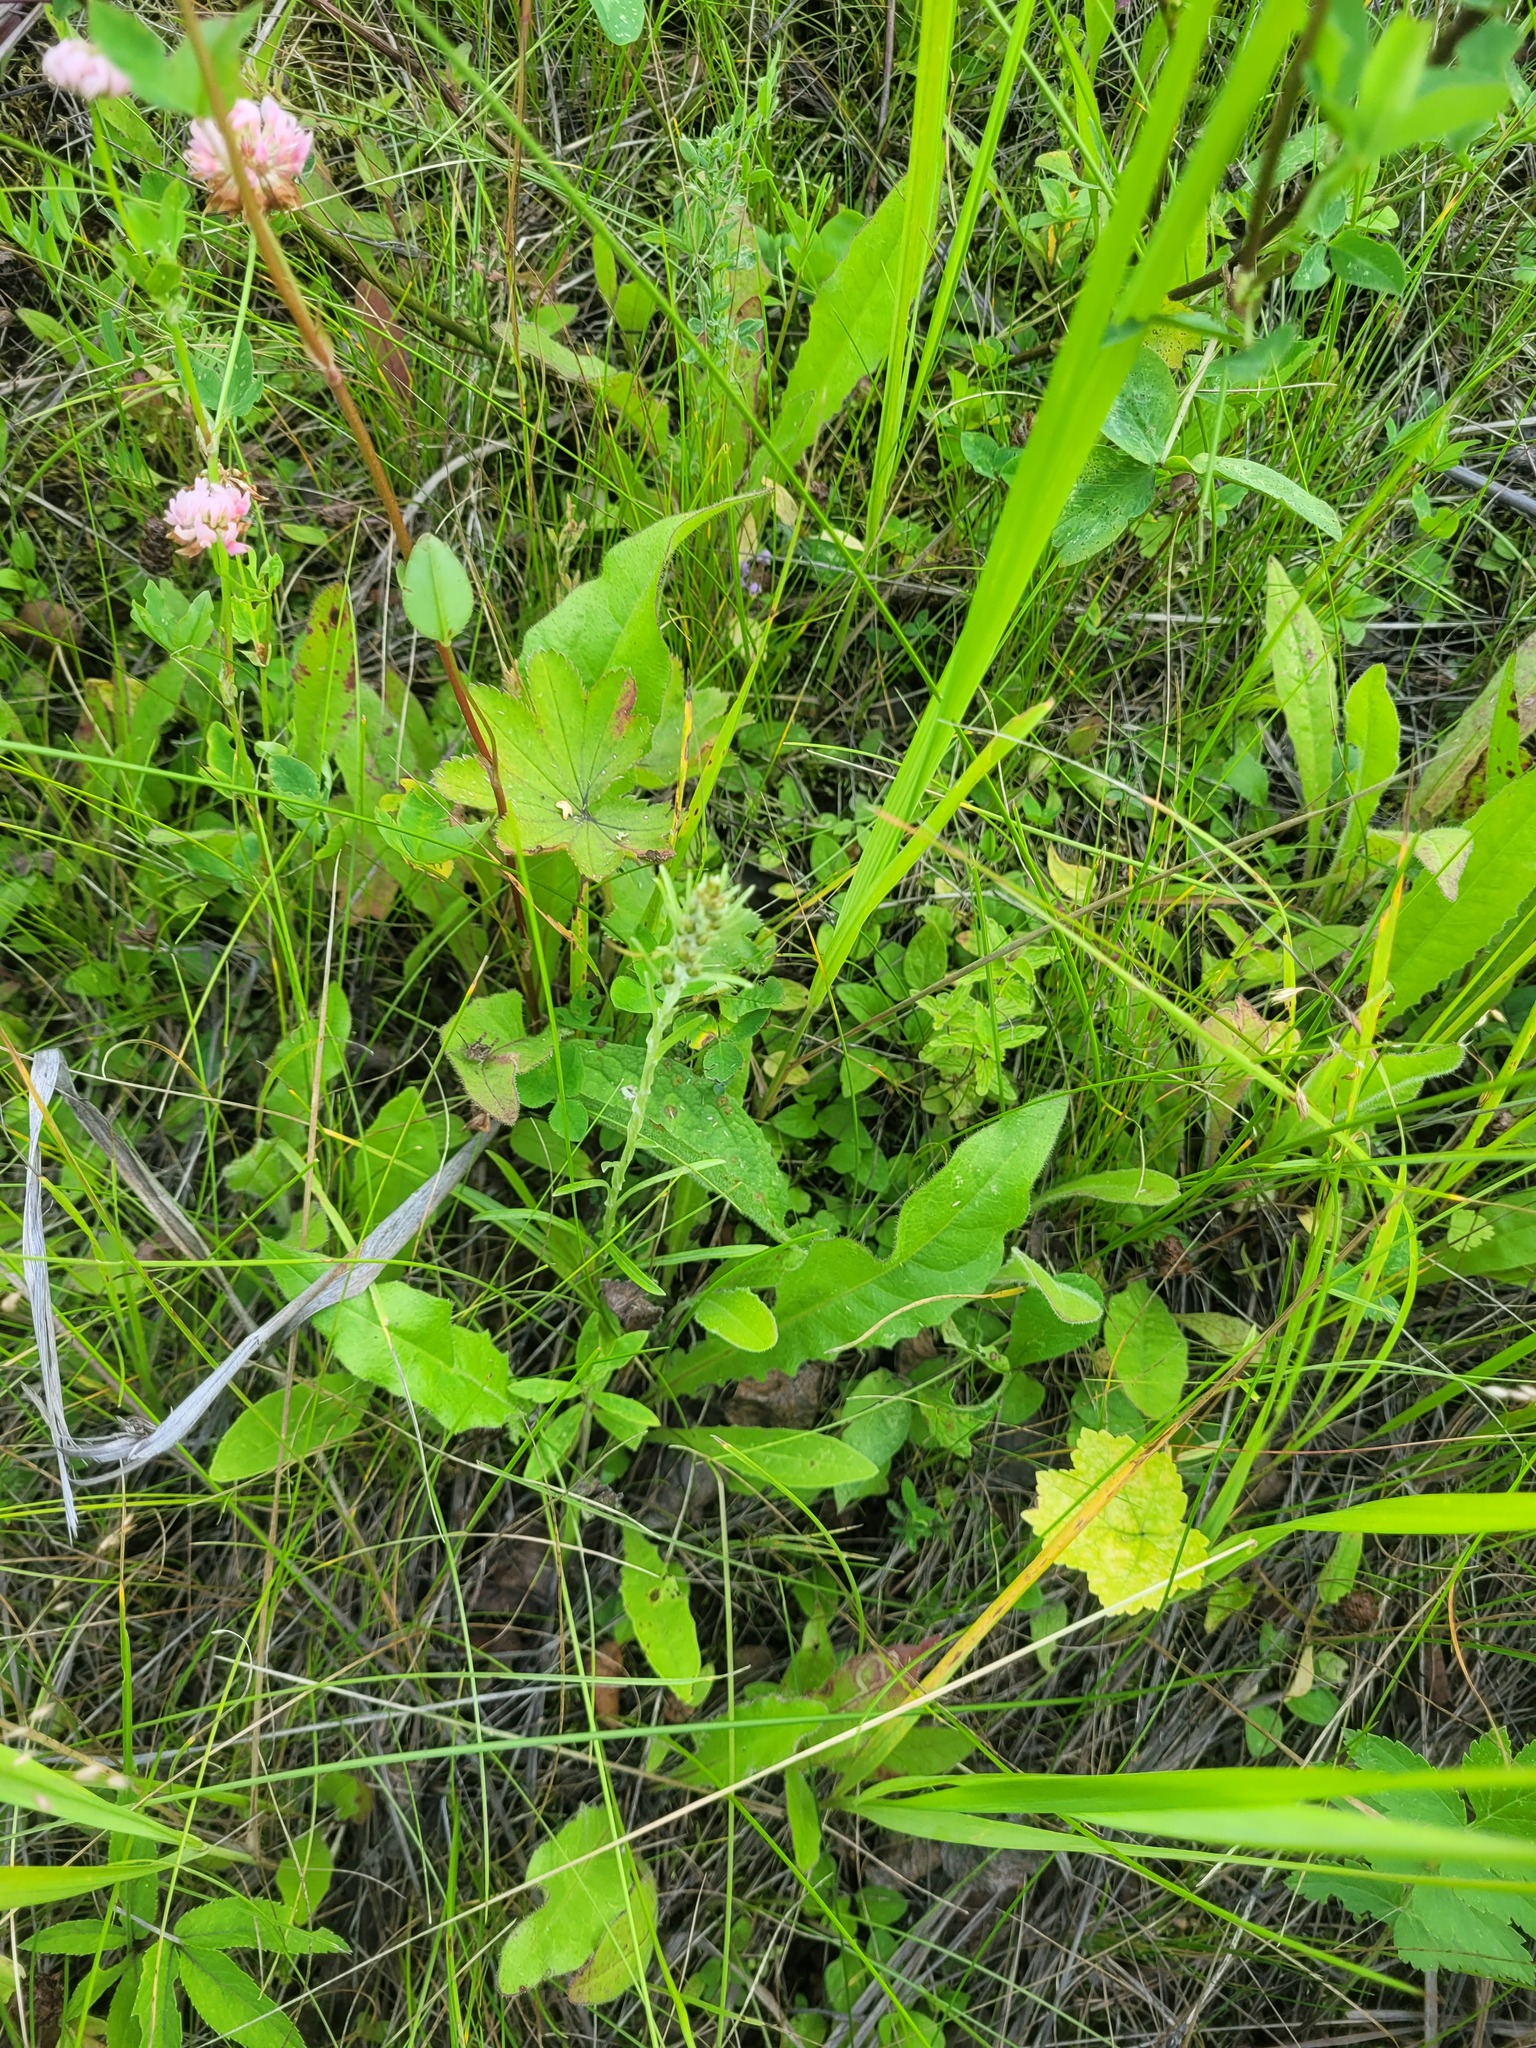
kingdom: Plantae
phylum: Tracheophyta
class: Magnoliopsida
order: Asterales
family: Asteraceae
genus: Omalotheca
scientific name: Omalotheca sylvatica
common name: Heath cudweed
